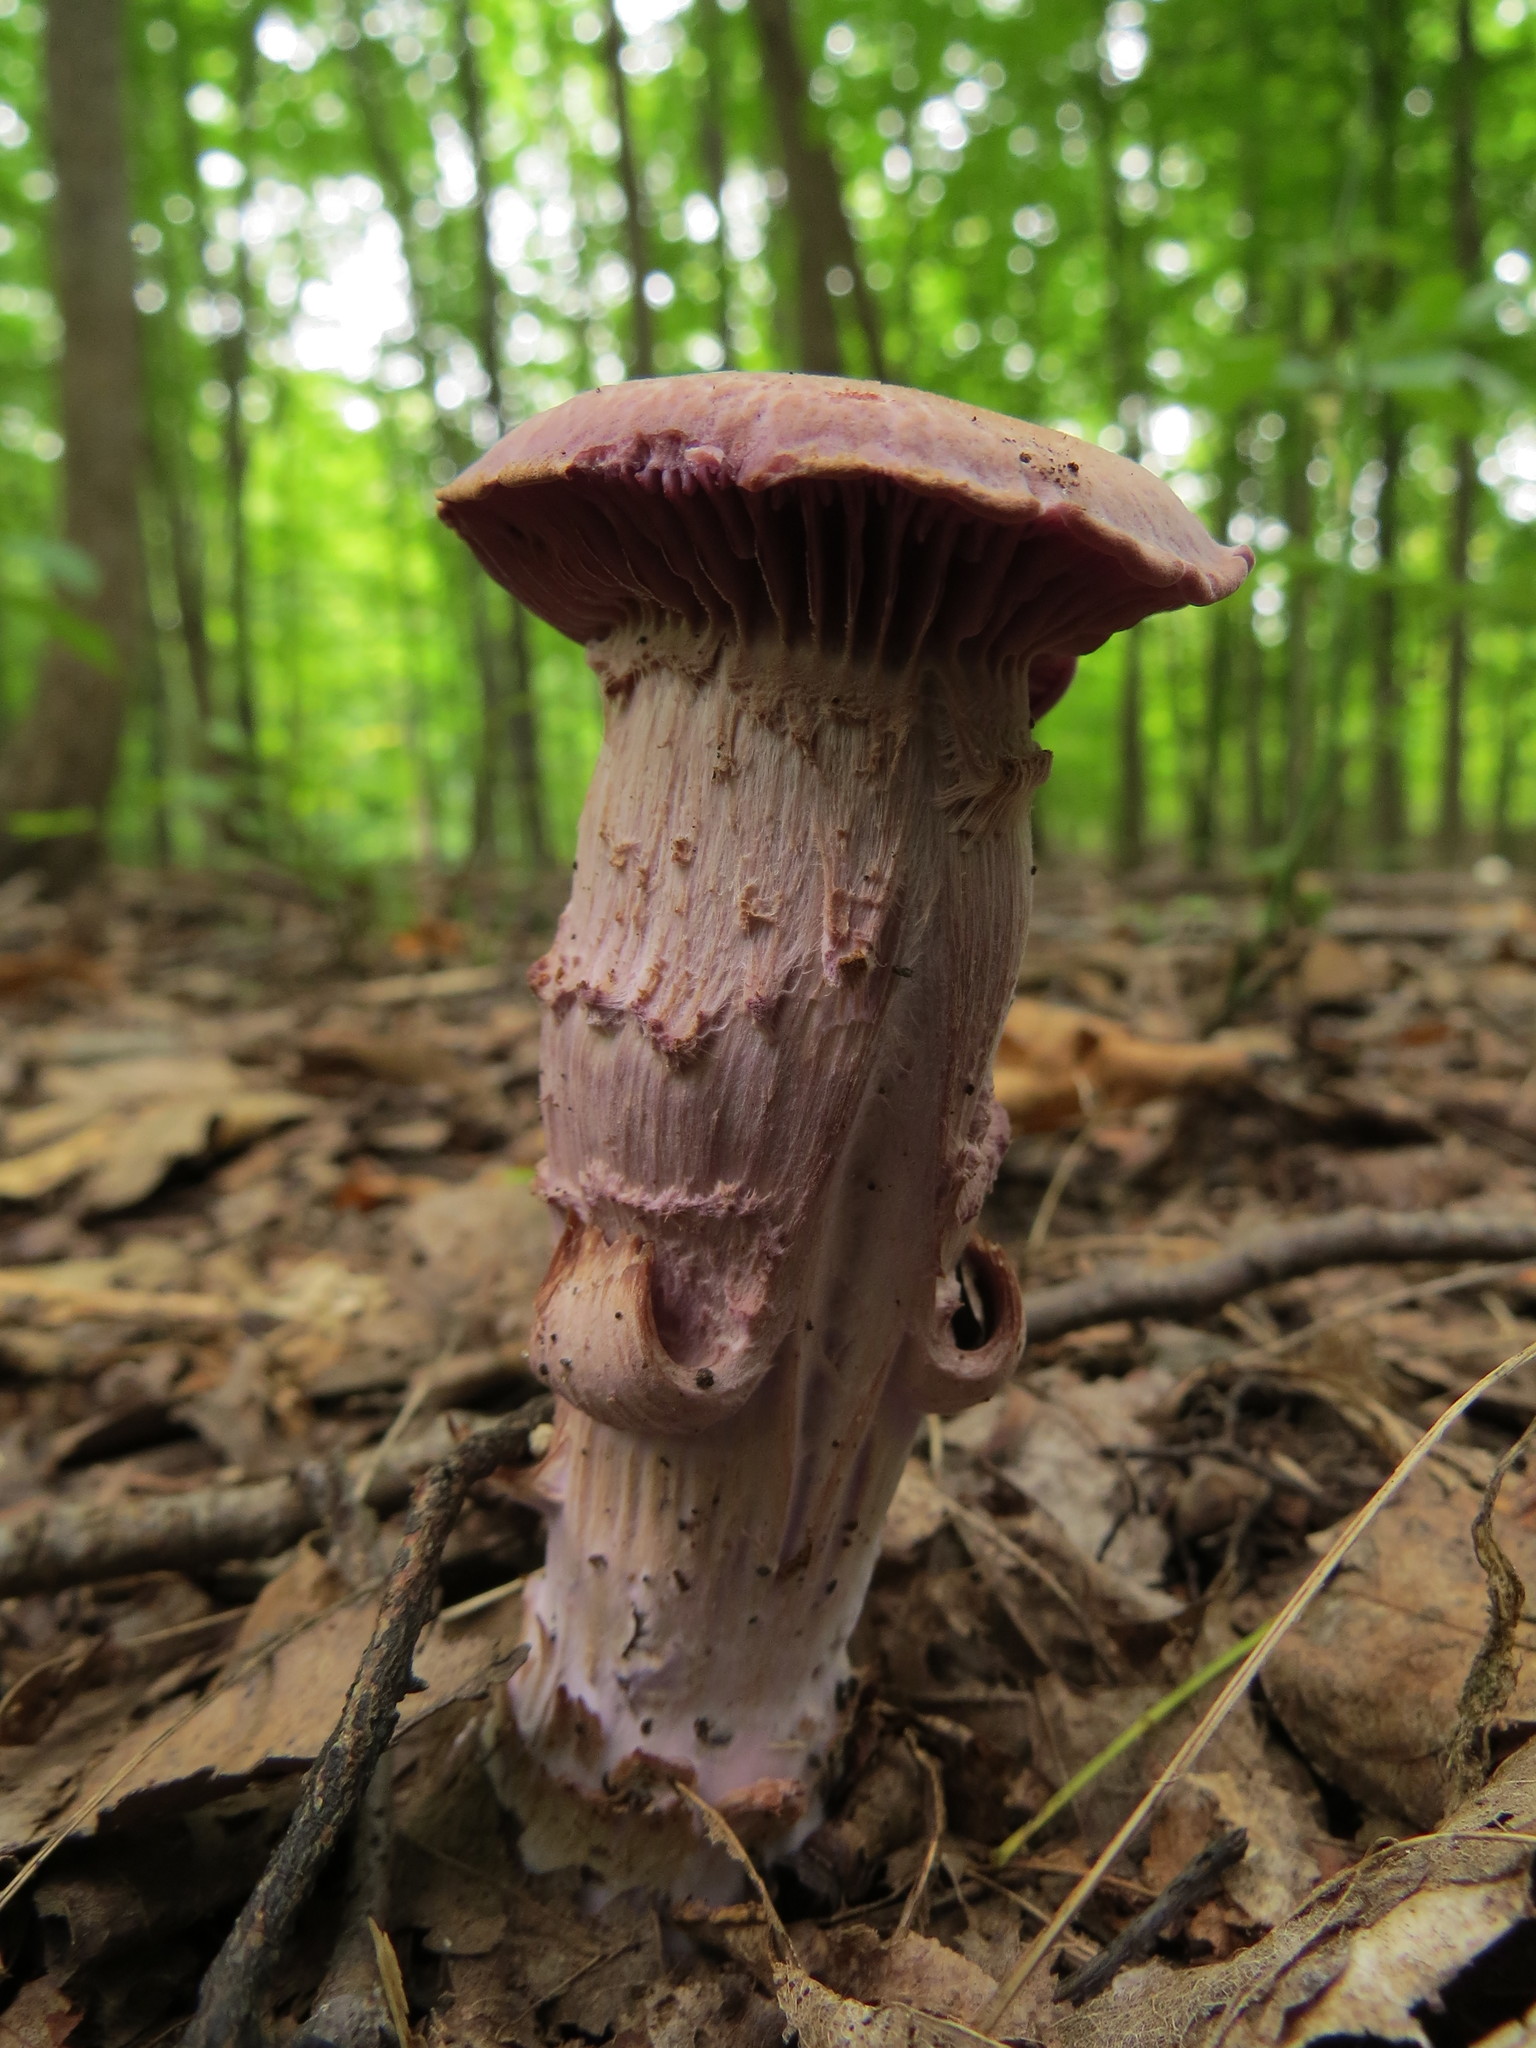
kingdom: Fungi
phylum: Basidiomycota
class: Agaricomycetes
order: Agaricales
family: Hydnangiaceae
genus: Laccaria
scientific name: Laccaria ochropurpurea
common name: Purple laccaria
